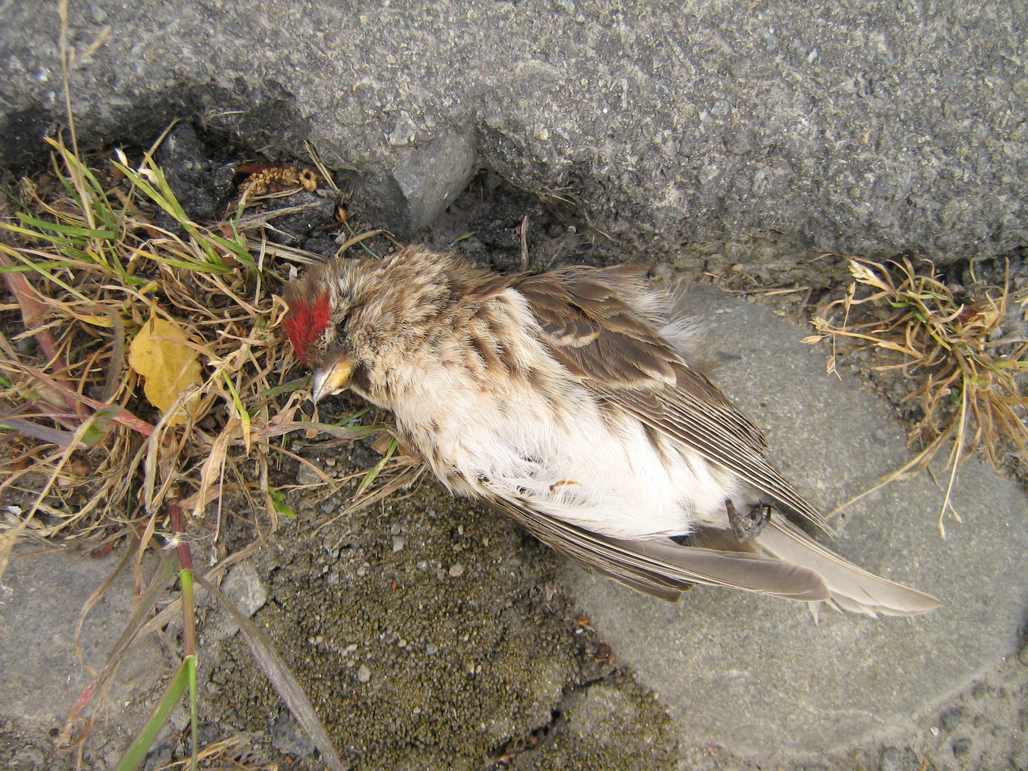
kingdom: Animalia
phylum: Chordata
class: Aves
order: Passeriformes
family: Fringillidae
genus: Acanthis
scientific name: Acanthis flammea
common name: Common redpoll
